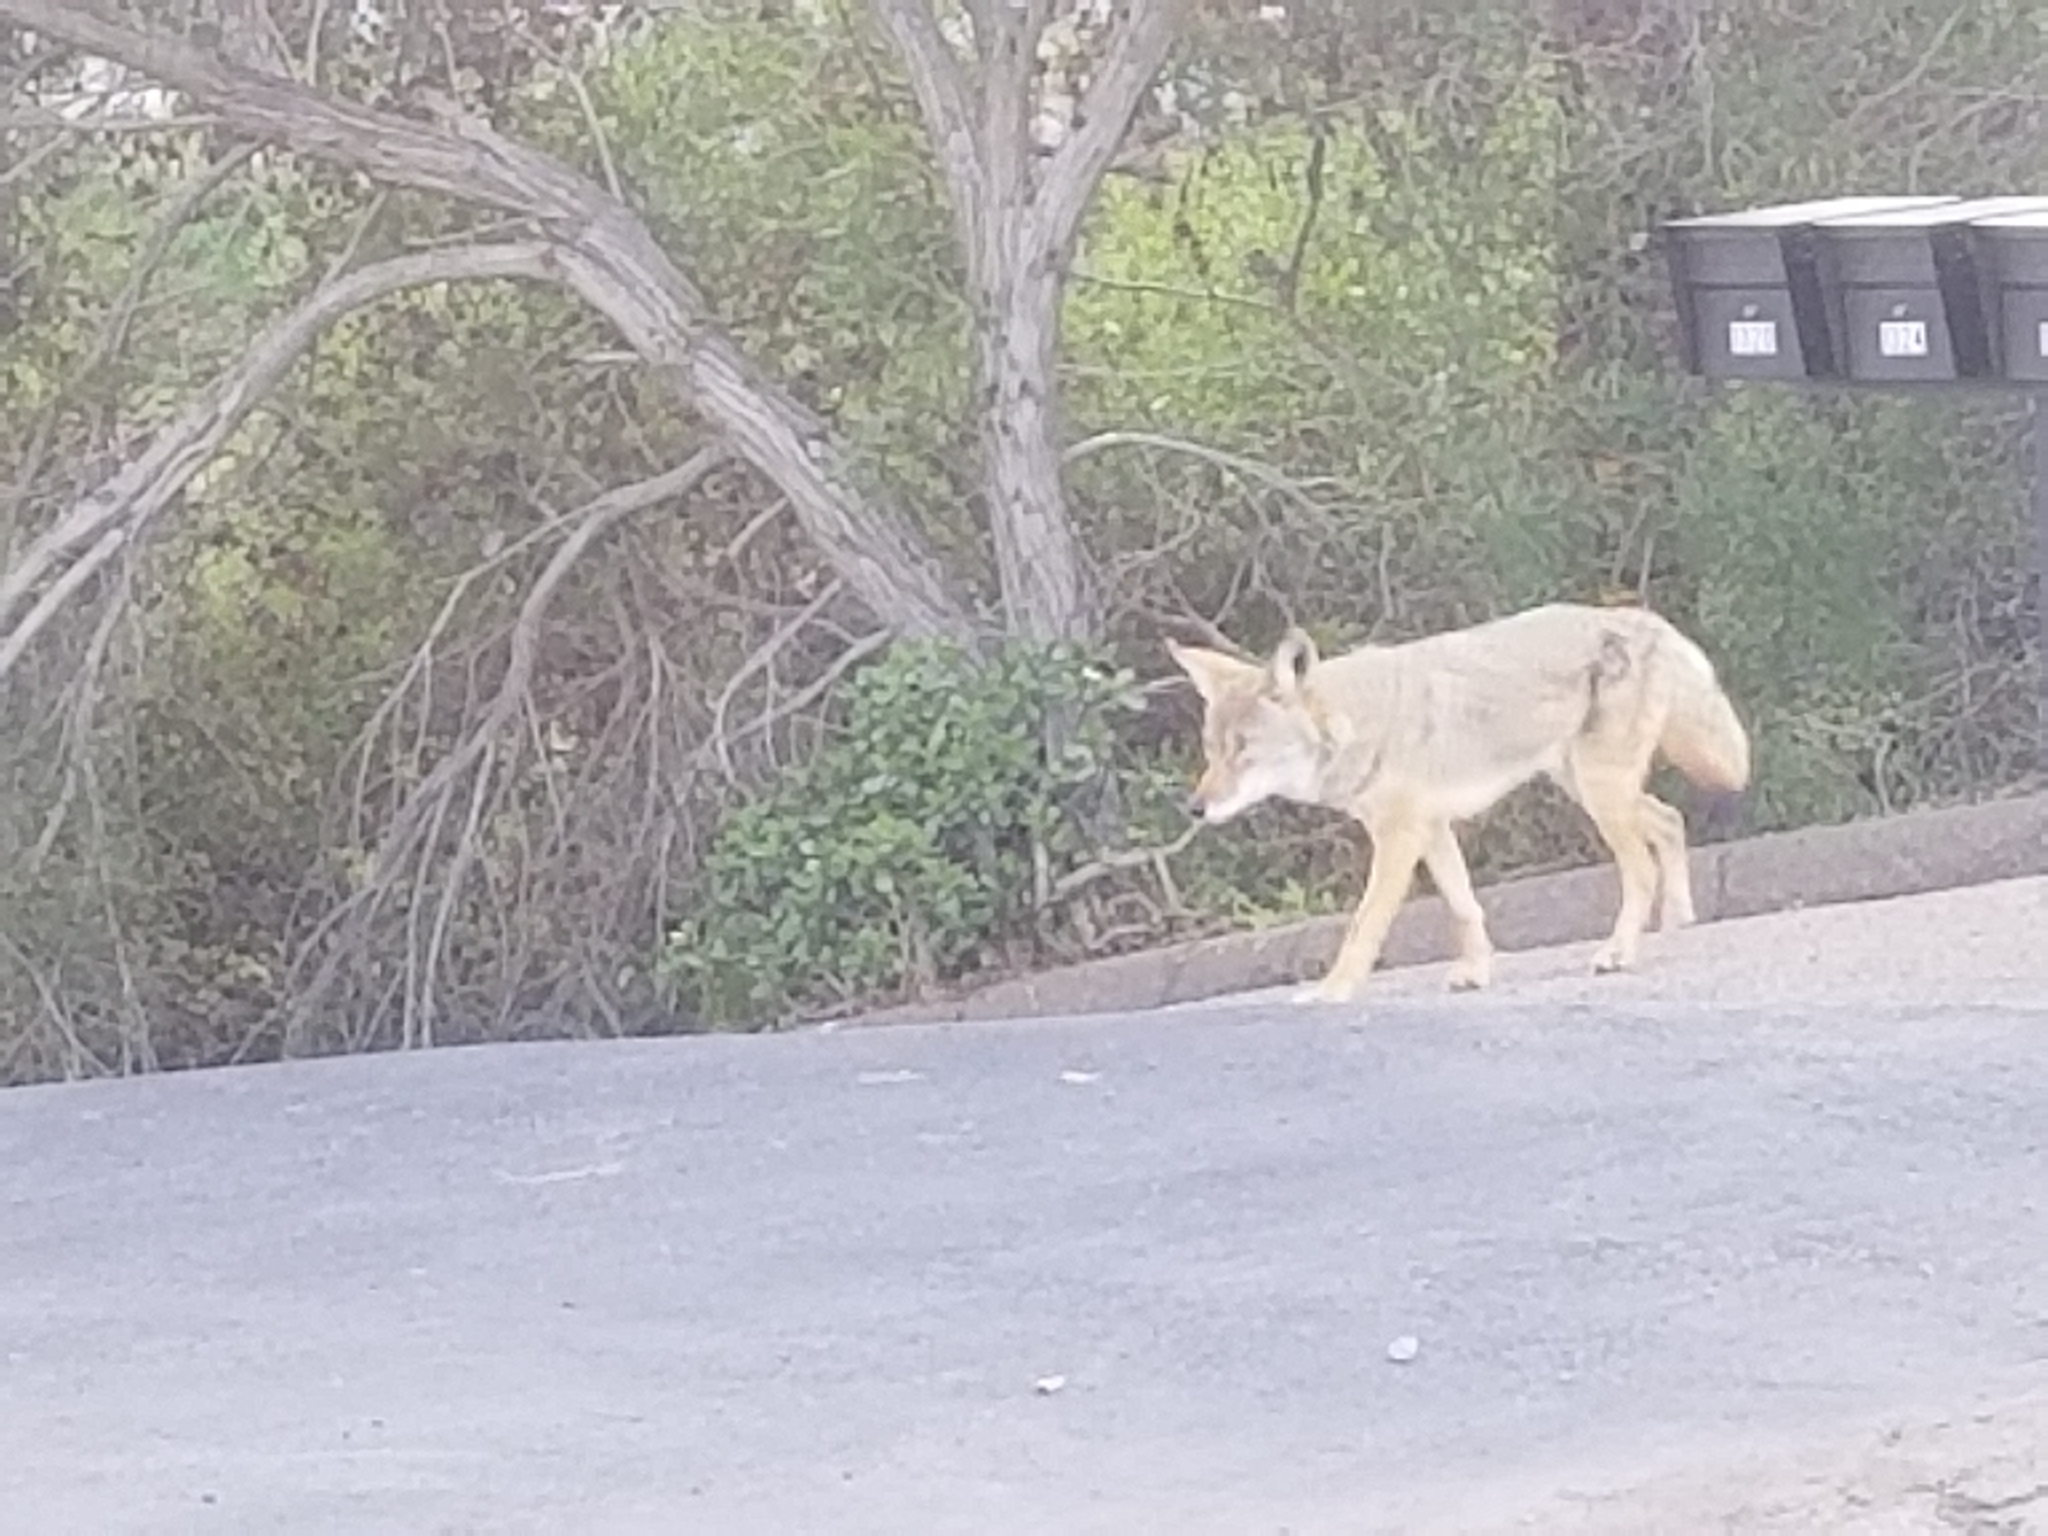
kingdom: Animalia
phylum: Chordata
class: Mammalia
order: Carnivora
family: Canidae
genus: Canis
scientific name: Canis latrans
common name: Coyote
